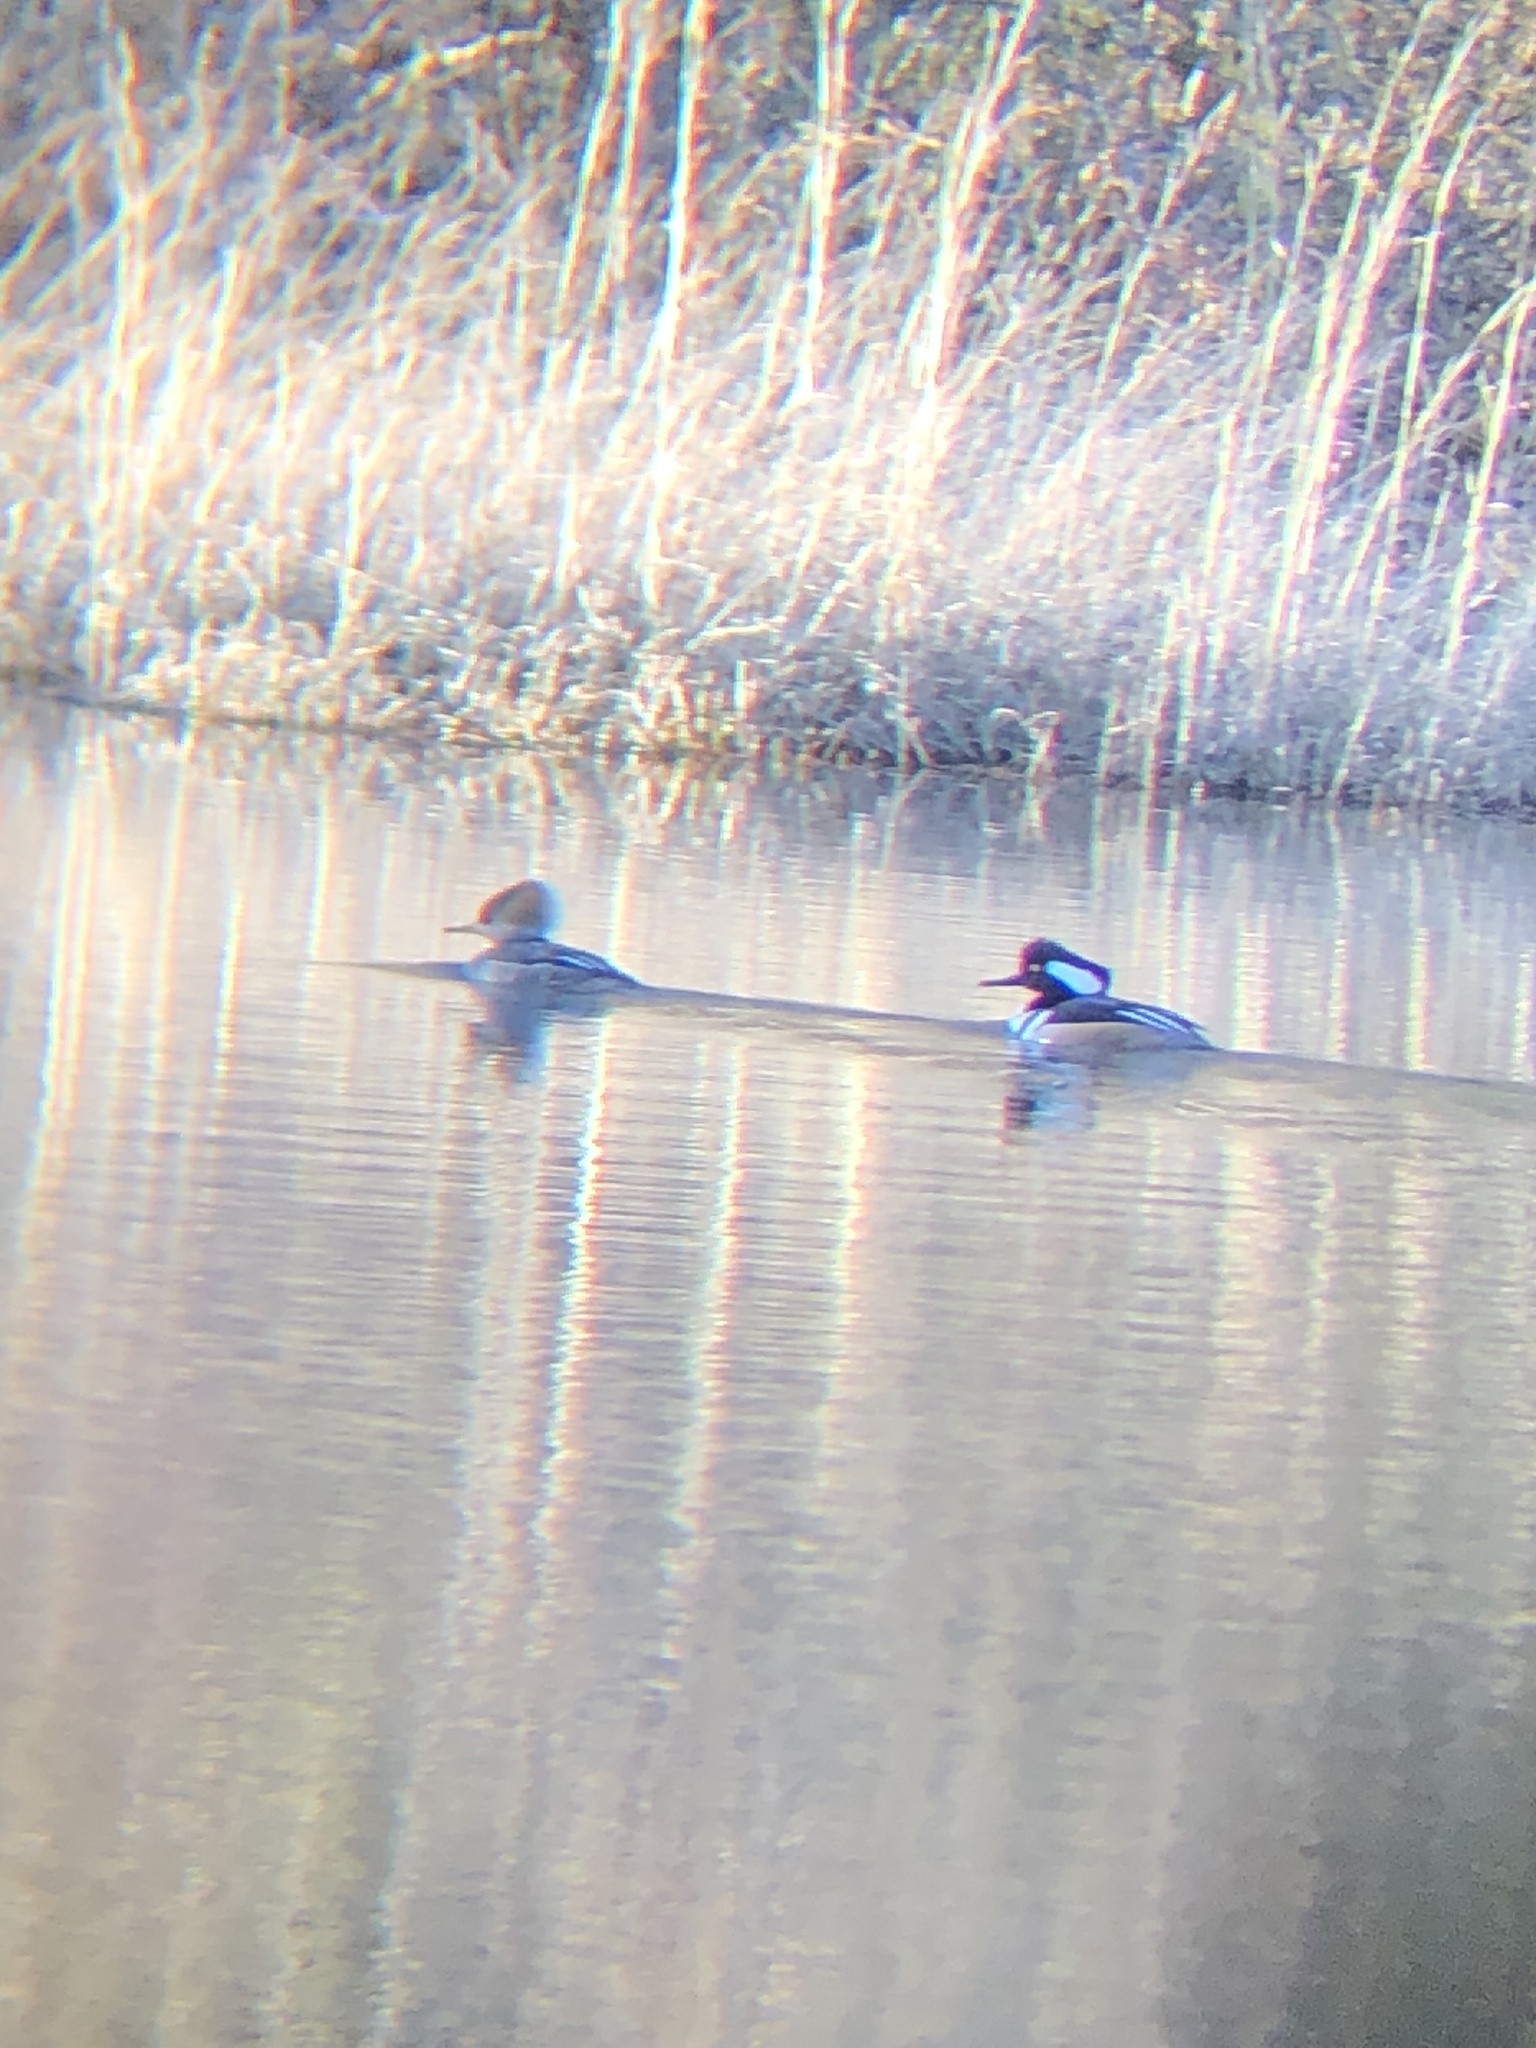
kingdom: Animalia
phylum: Chordata
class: Aves
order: Anseriformes
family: Anatidae
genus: Lophodytes
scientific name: Lophodytes cucullatus
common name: Hooded merganser
